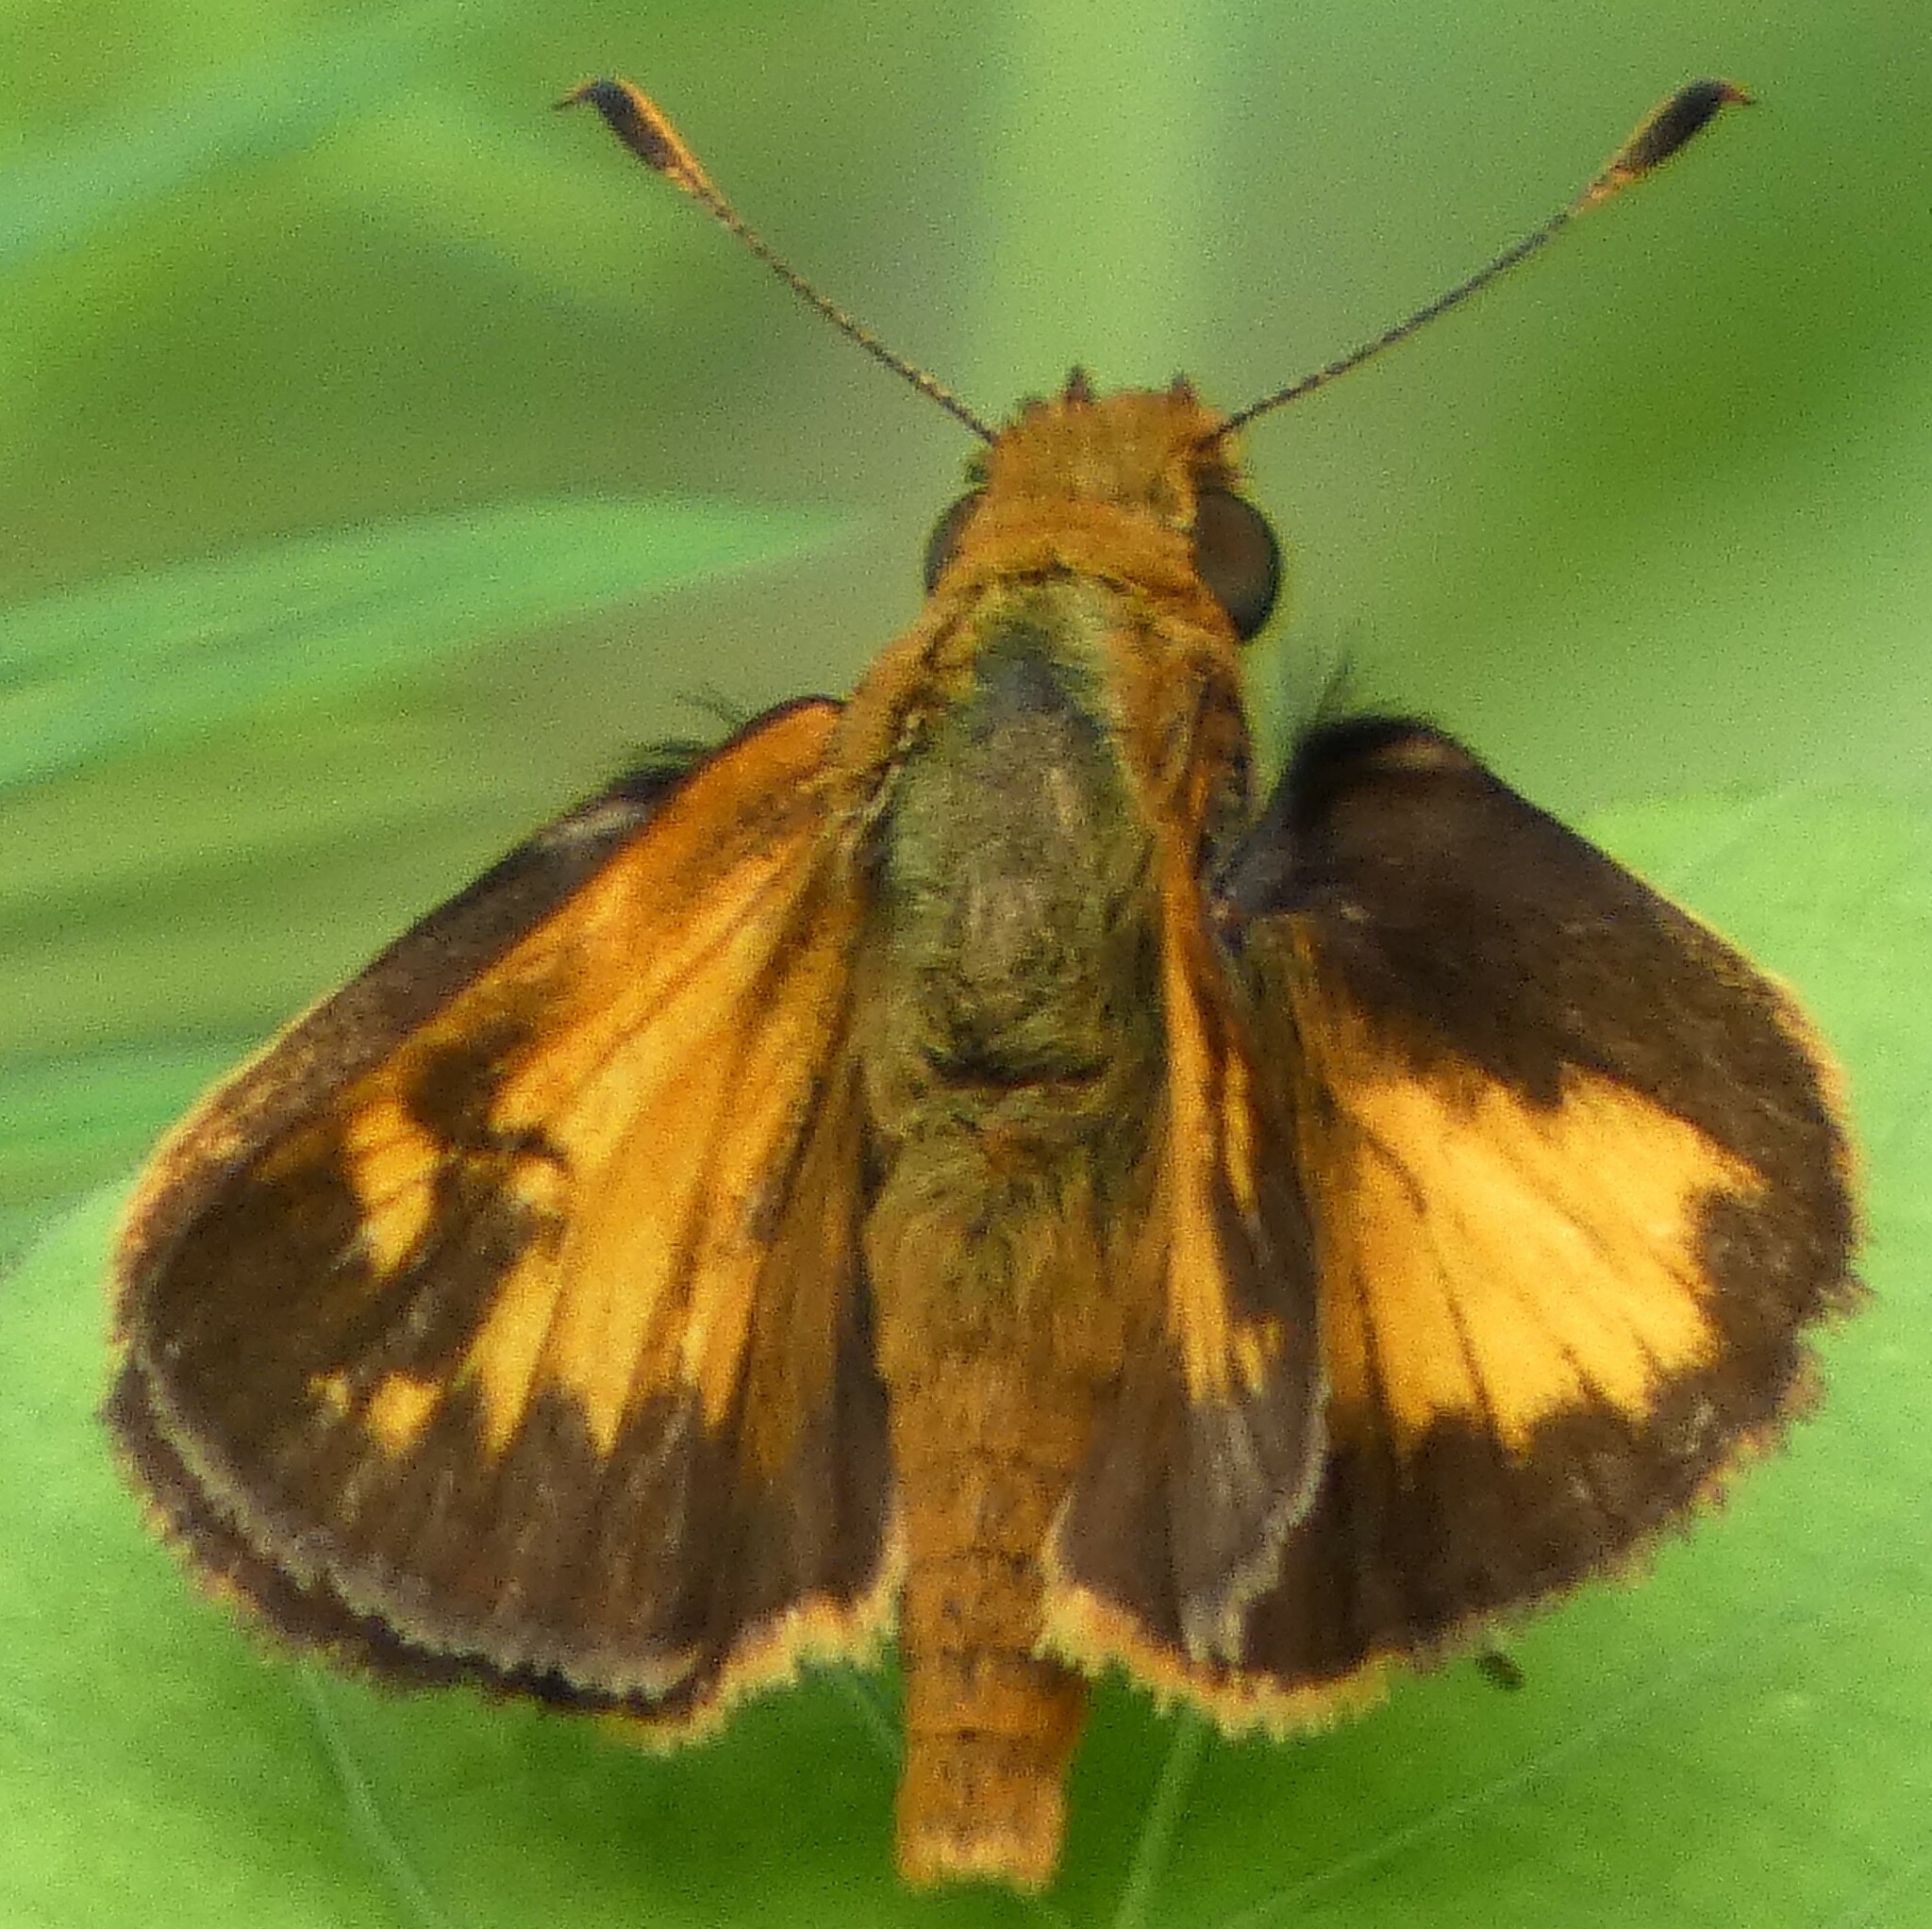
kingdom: Animalia
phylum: Arthropoda
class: Insecta
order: Lepidoptera
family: Hesperiidae
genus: Lon
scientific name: Lon zabulon
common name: Zabulon skipper
